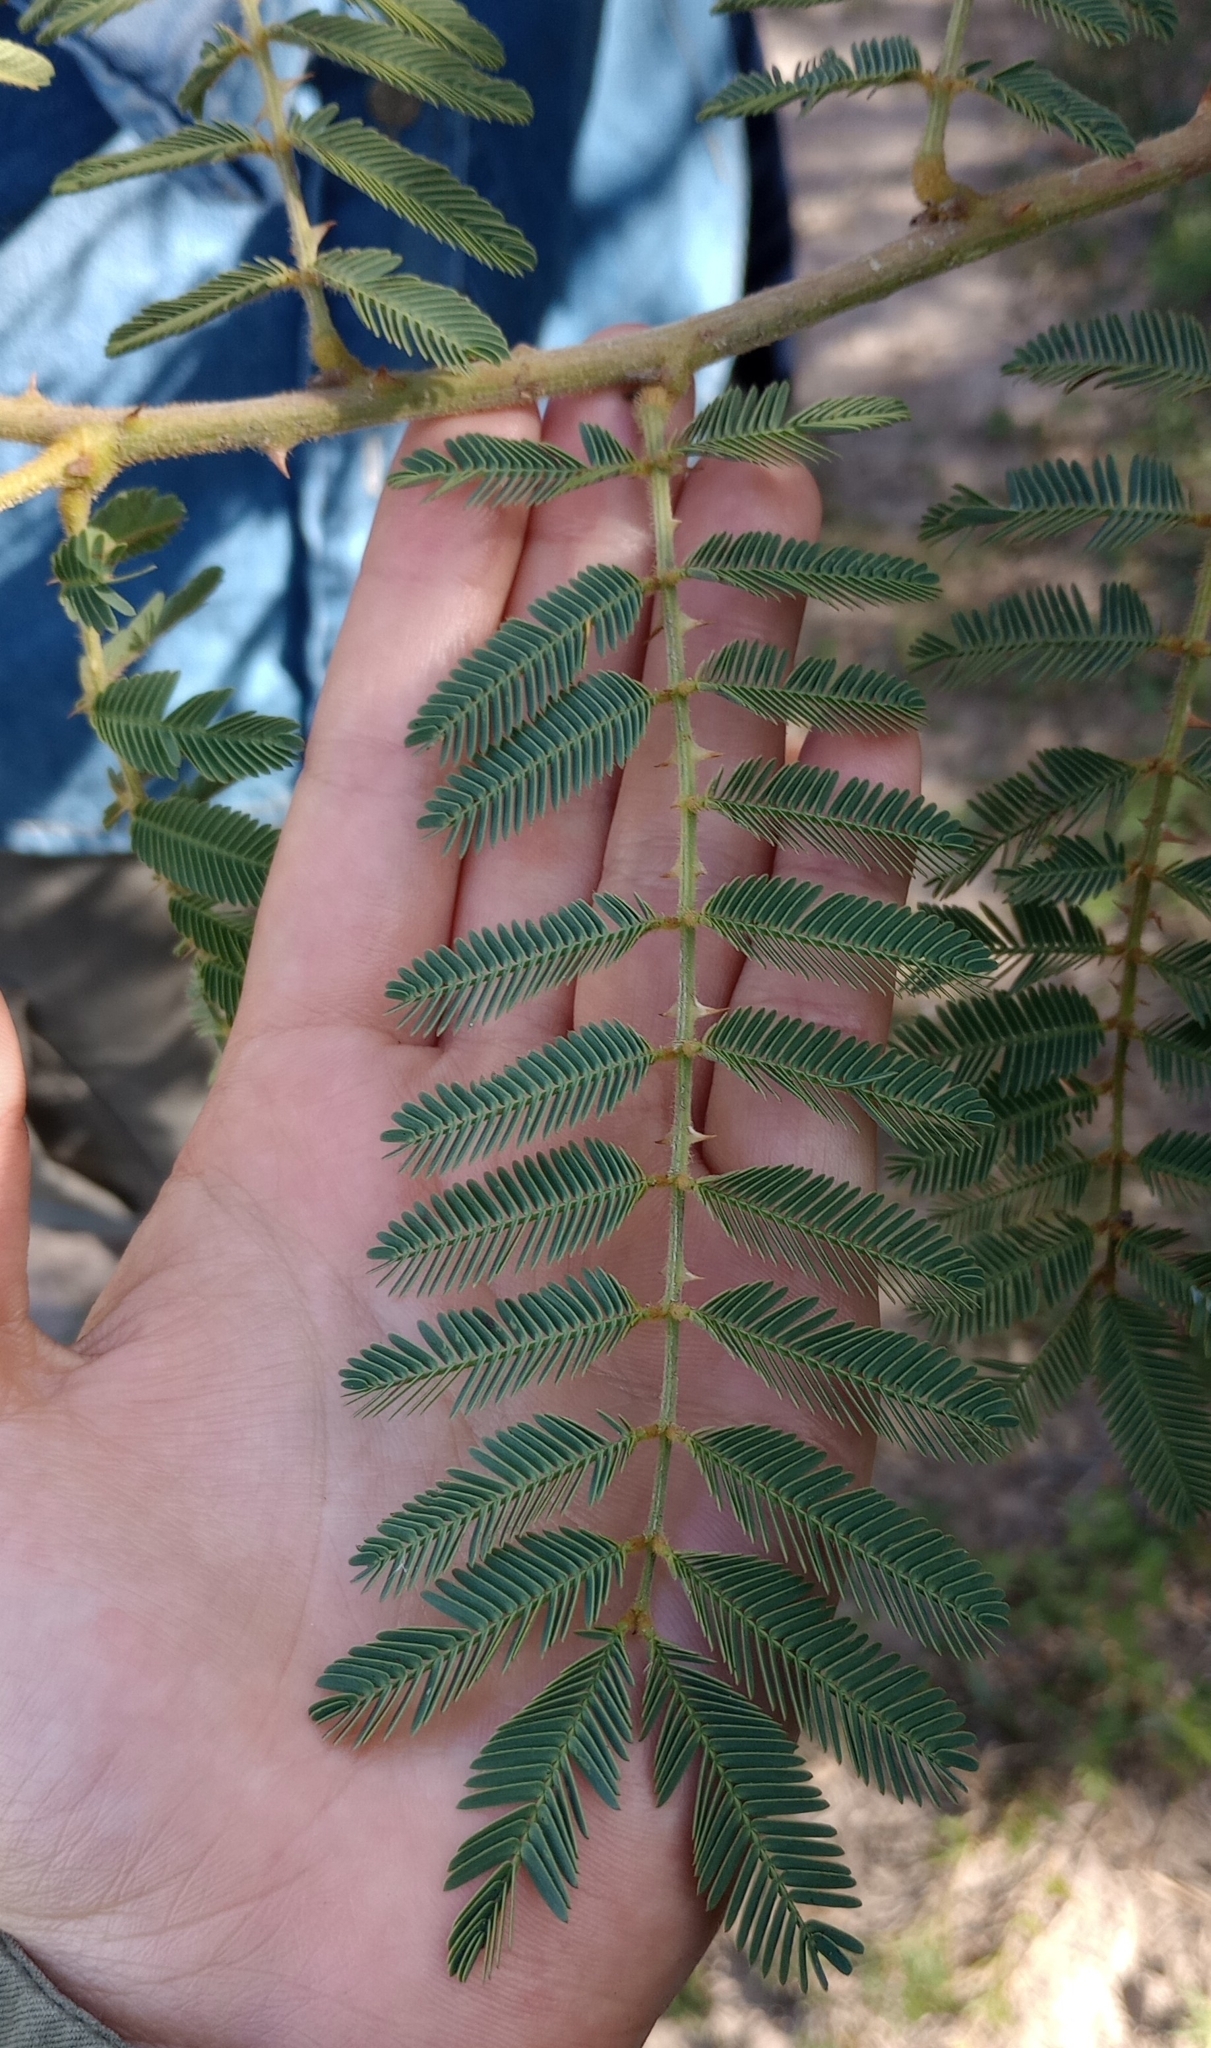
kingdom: Plantae
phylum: Tracheophyta
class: Magnoliopsida
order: Fabales
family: Fabaceae
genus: Mimosa
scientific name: Mimosa pigra
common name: Black mimosa
